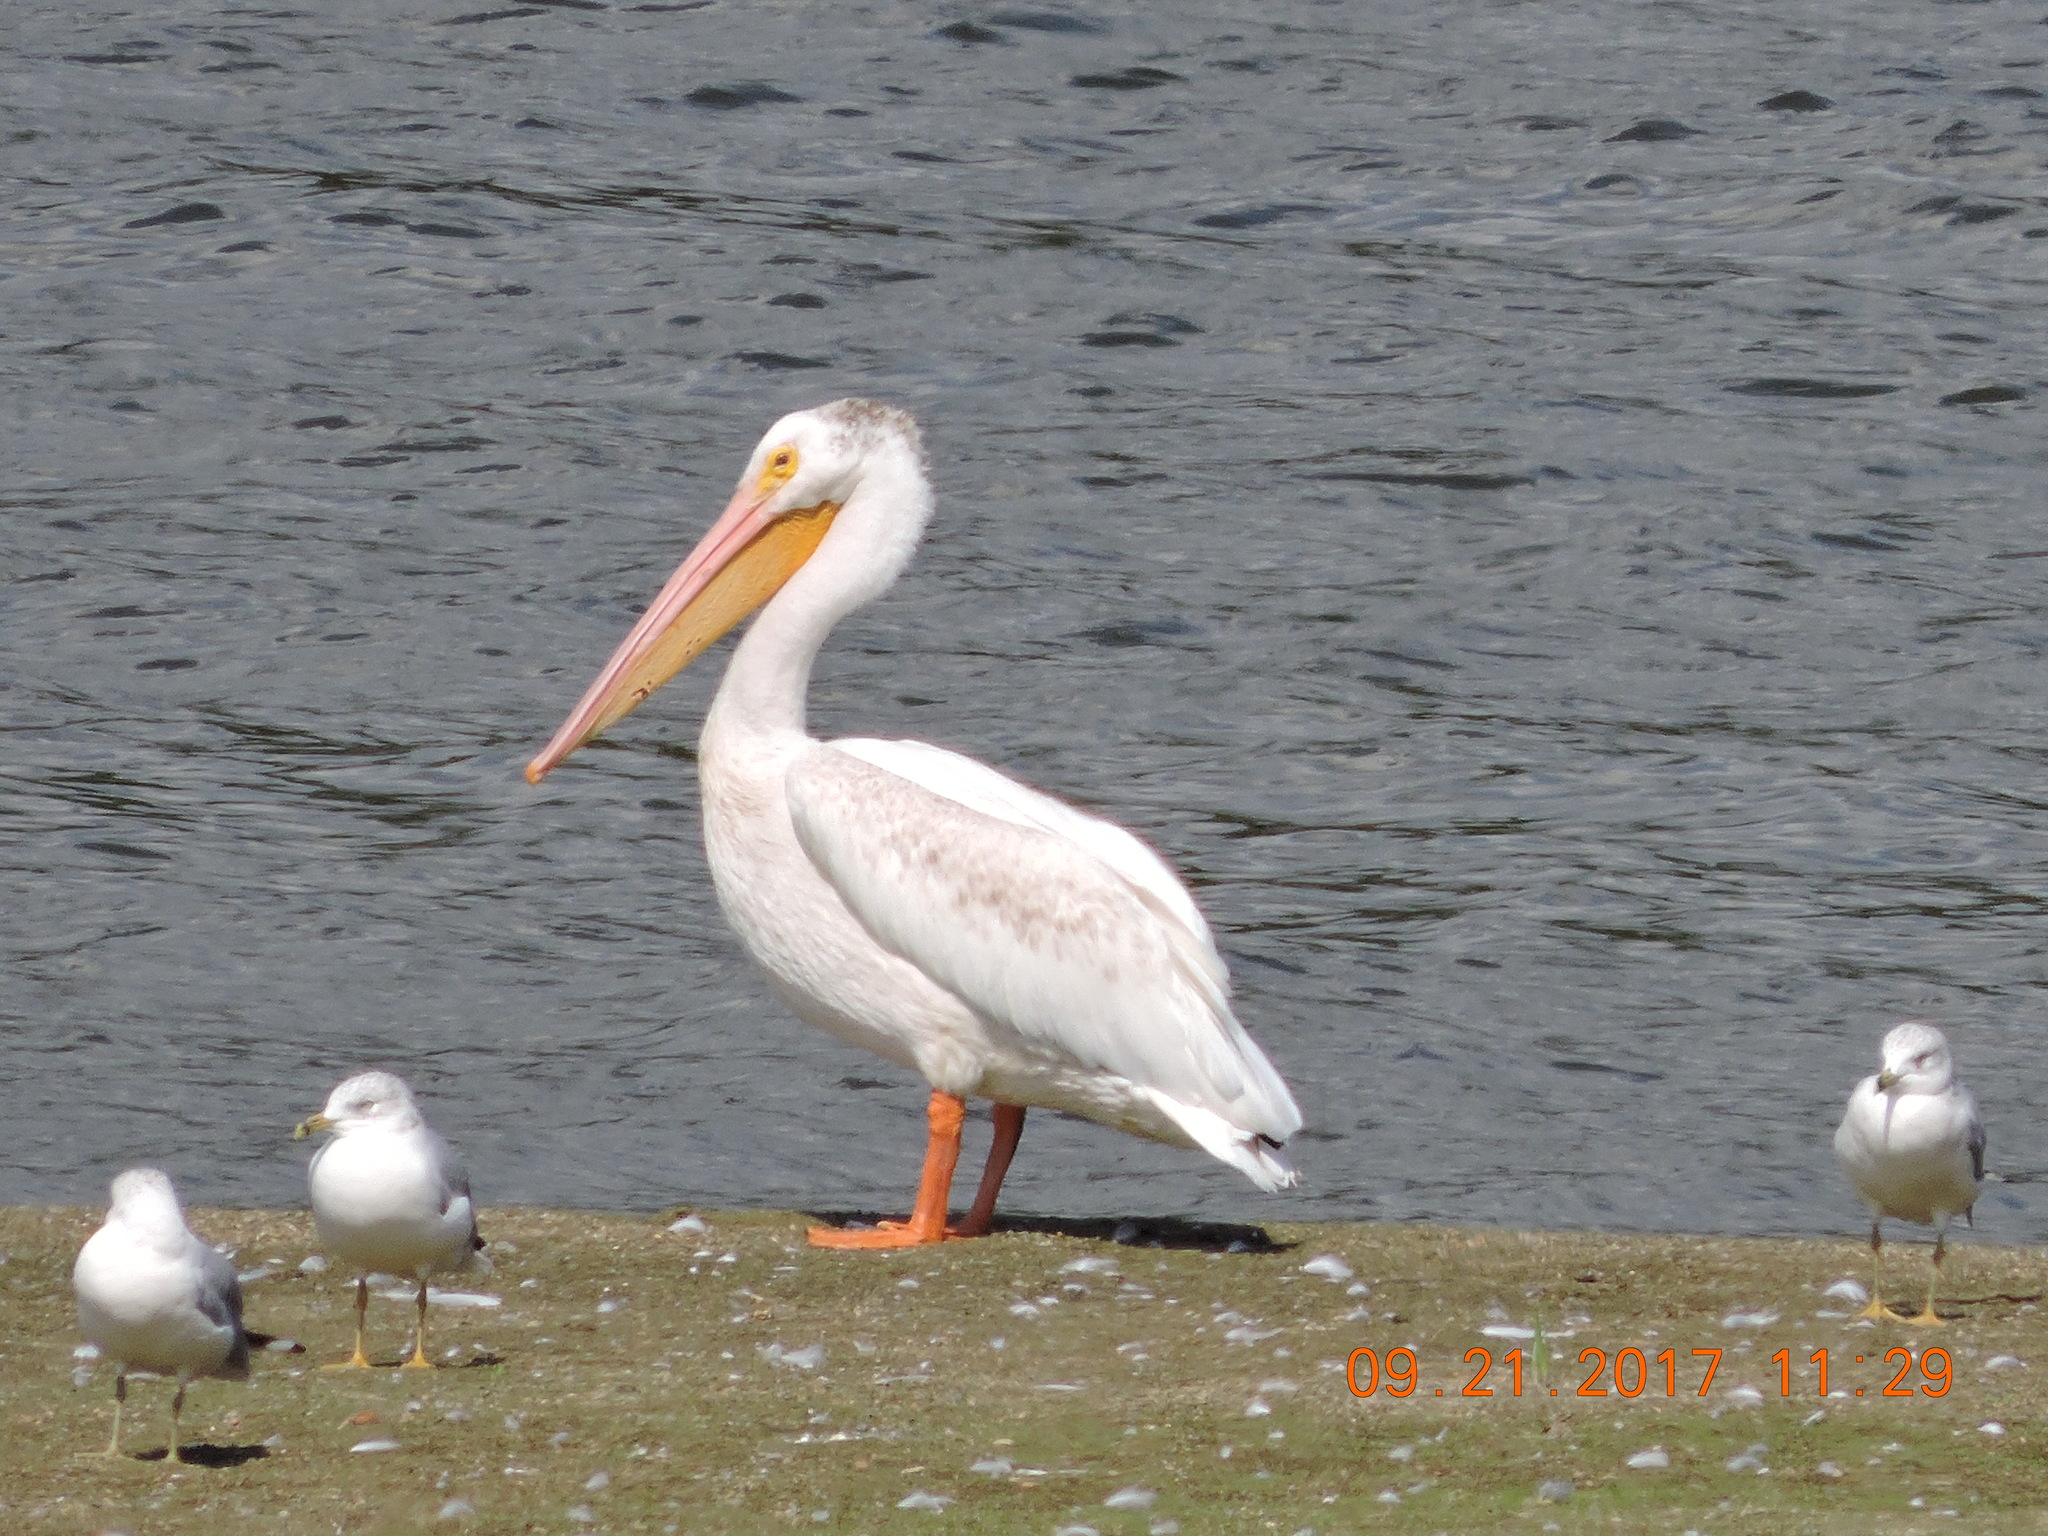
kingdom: Animalia
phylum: Chordata
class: Aves
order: Pelecaniformes
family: Pelecanidae
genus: Pelecanus
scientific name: Pelecanus erythrorhynchos
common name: American white pelican
